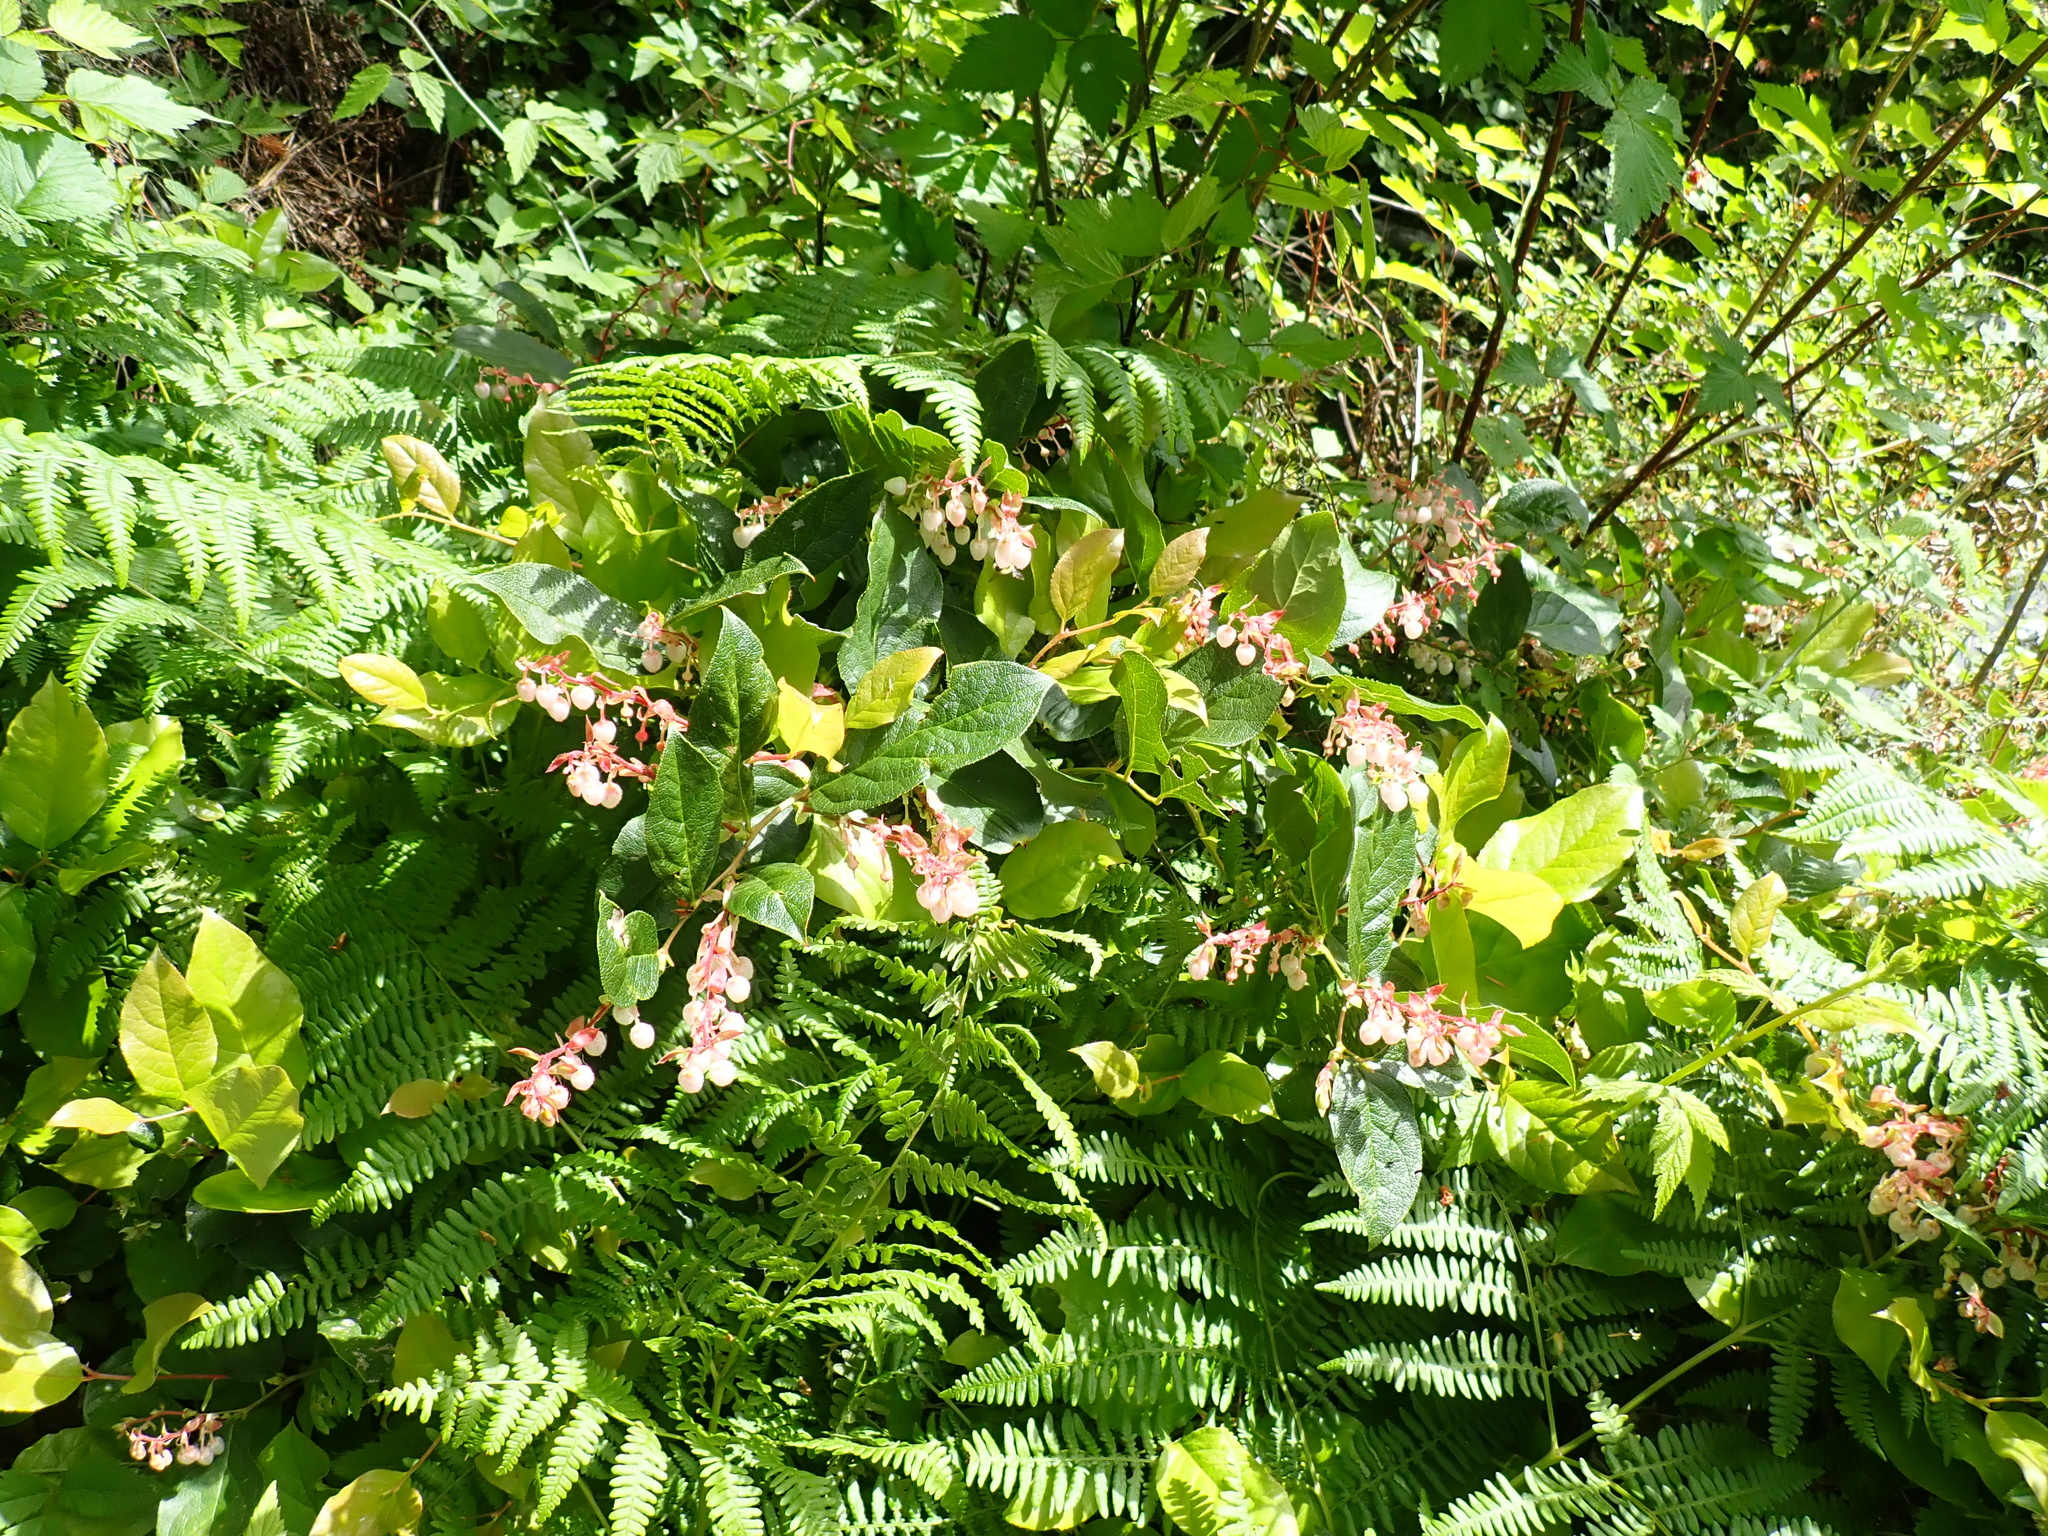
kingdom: Plantae
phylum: Tracheophyta
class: Magnoliopsida
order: Ericales
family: Ericaceae
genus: Gaultheria
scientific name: Gaultheria shallon
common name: Shallon
